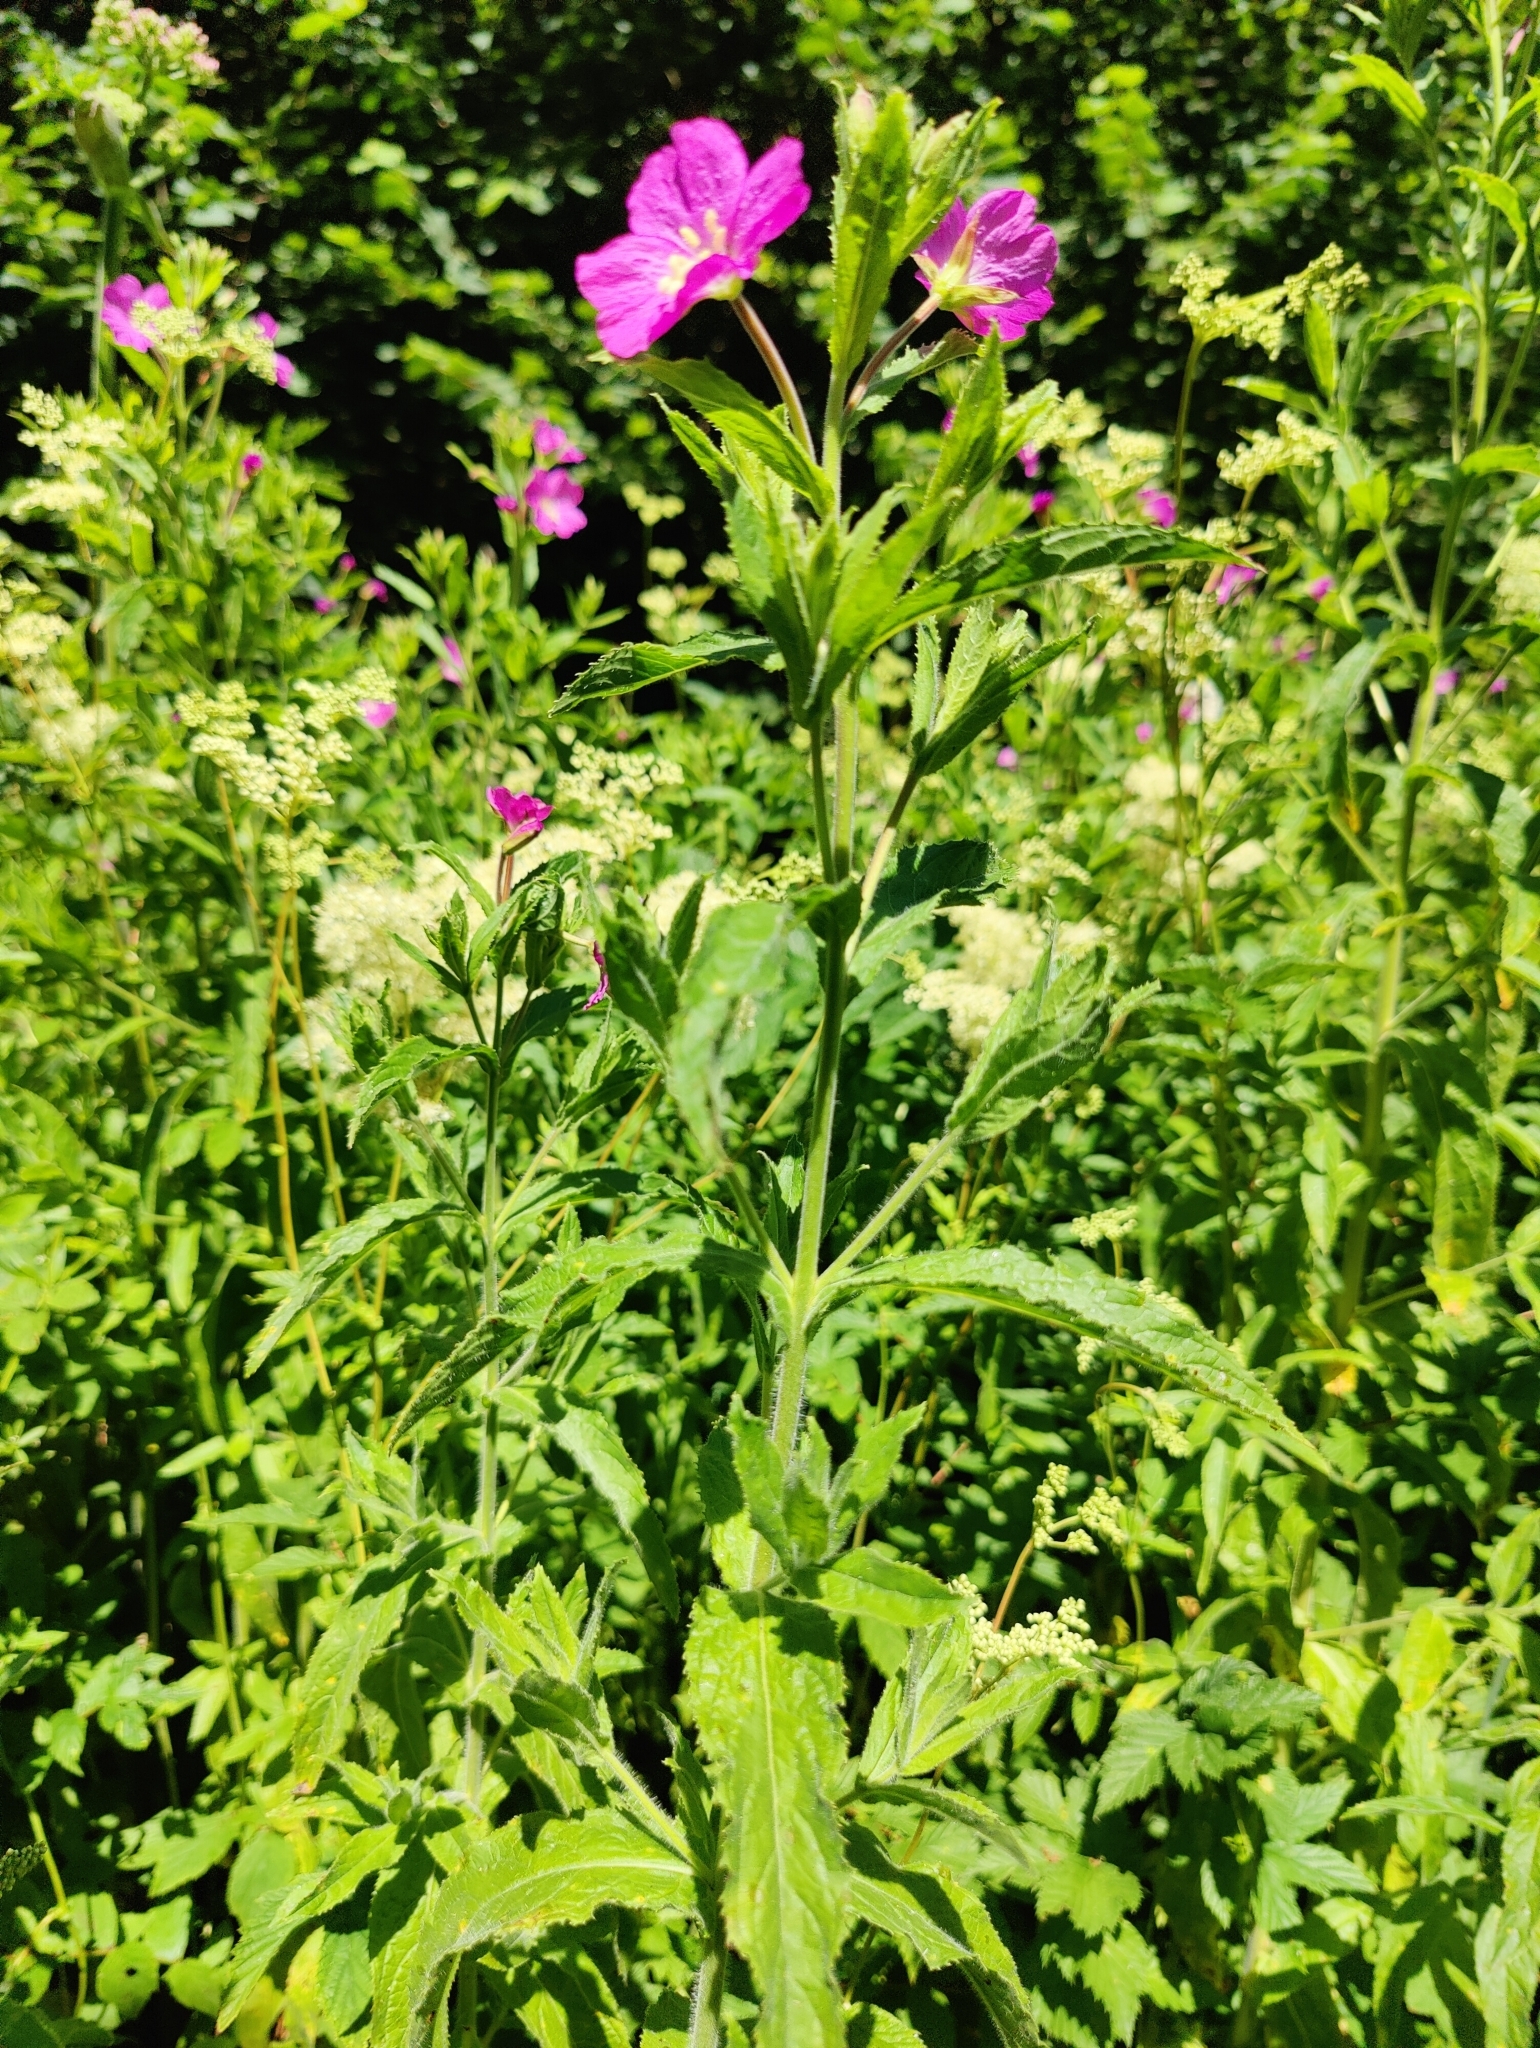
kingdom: Plantae
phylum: Tracheophyta
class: Magnoliopsida
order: Myrtales
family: Onagraceae
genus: Epilobium
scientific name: Epilobium hirsutum
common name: Great willowherb
